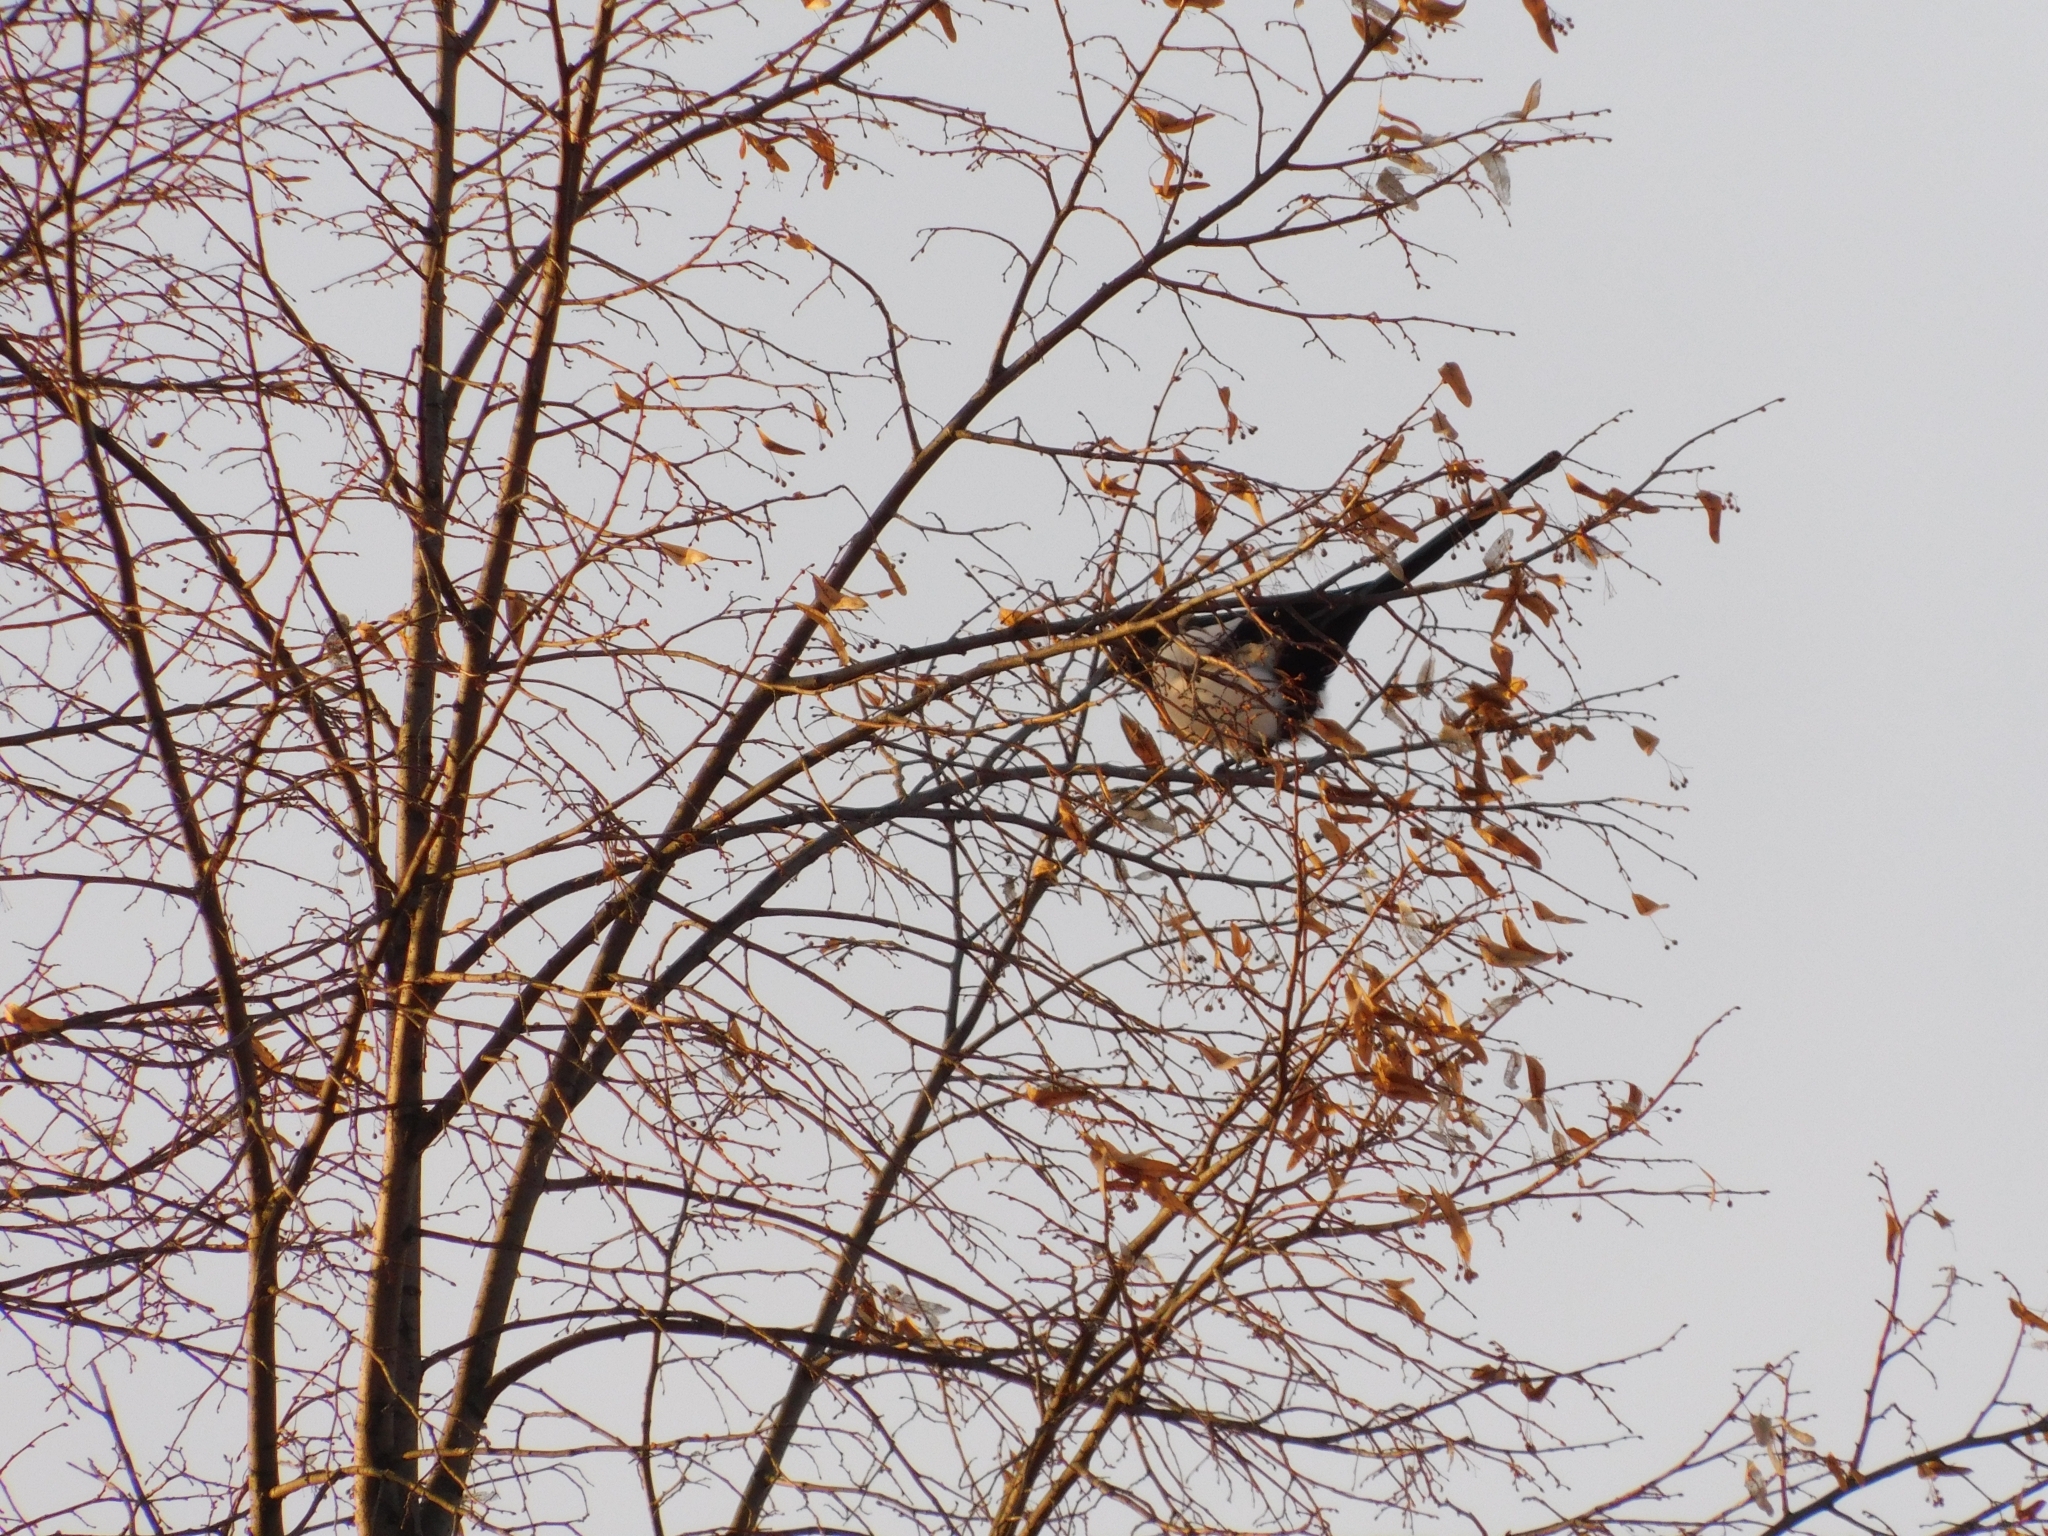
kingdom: Animalia
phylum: Chordata
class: Aves
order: Passeriformes
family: Corvidae
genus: Pica
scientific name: Pica pica
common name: Eurasian magpie
